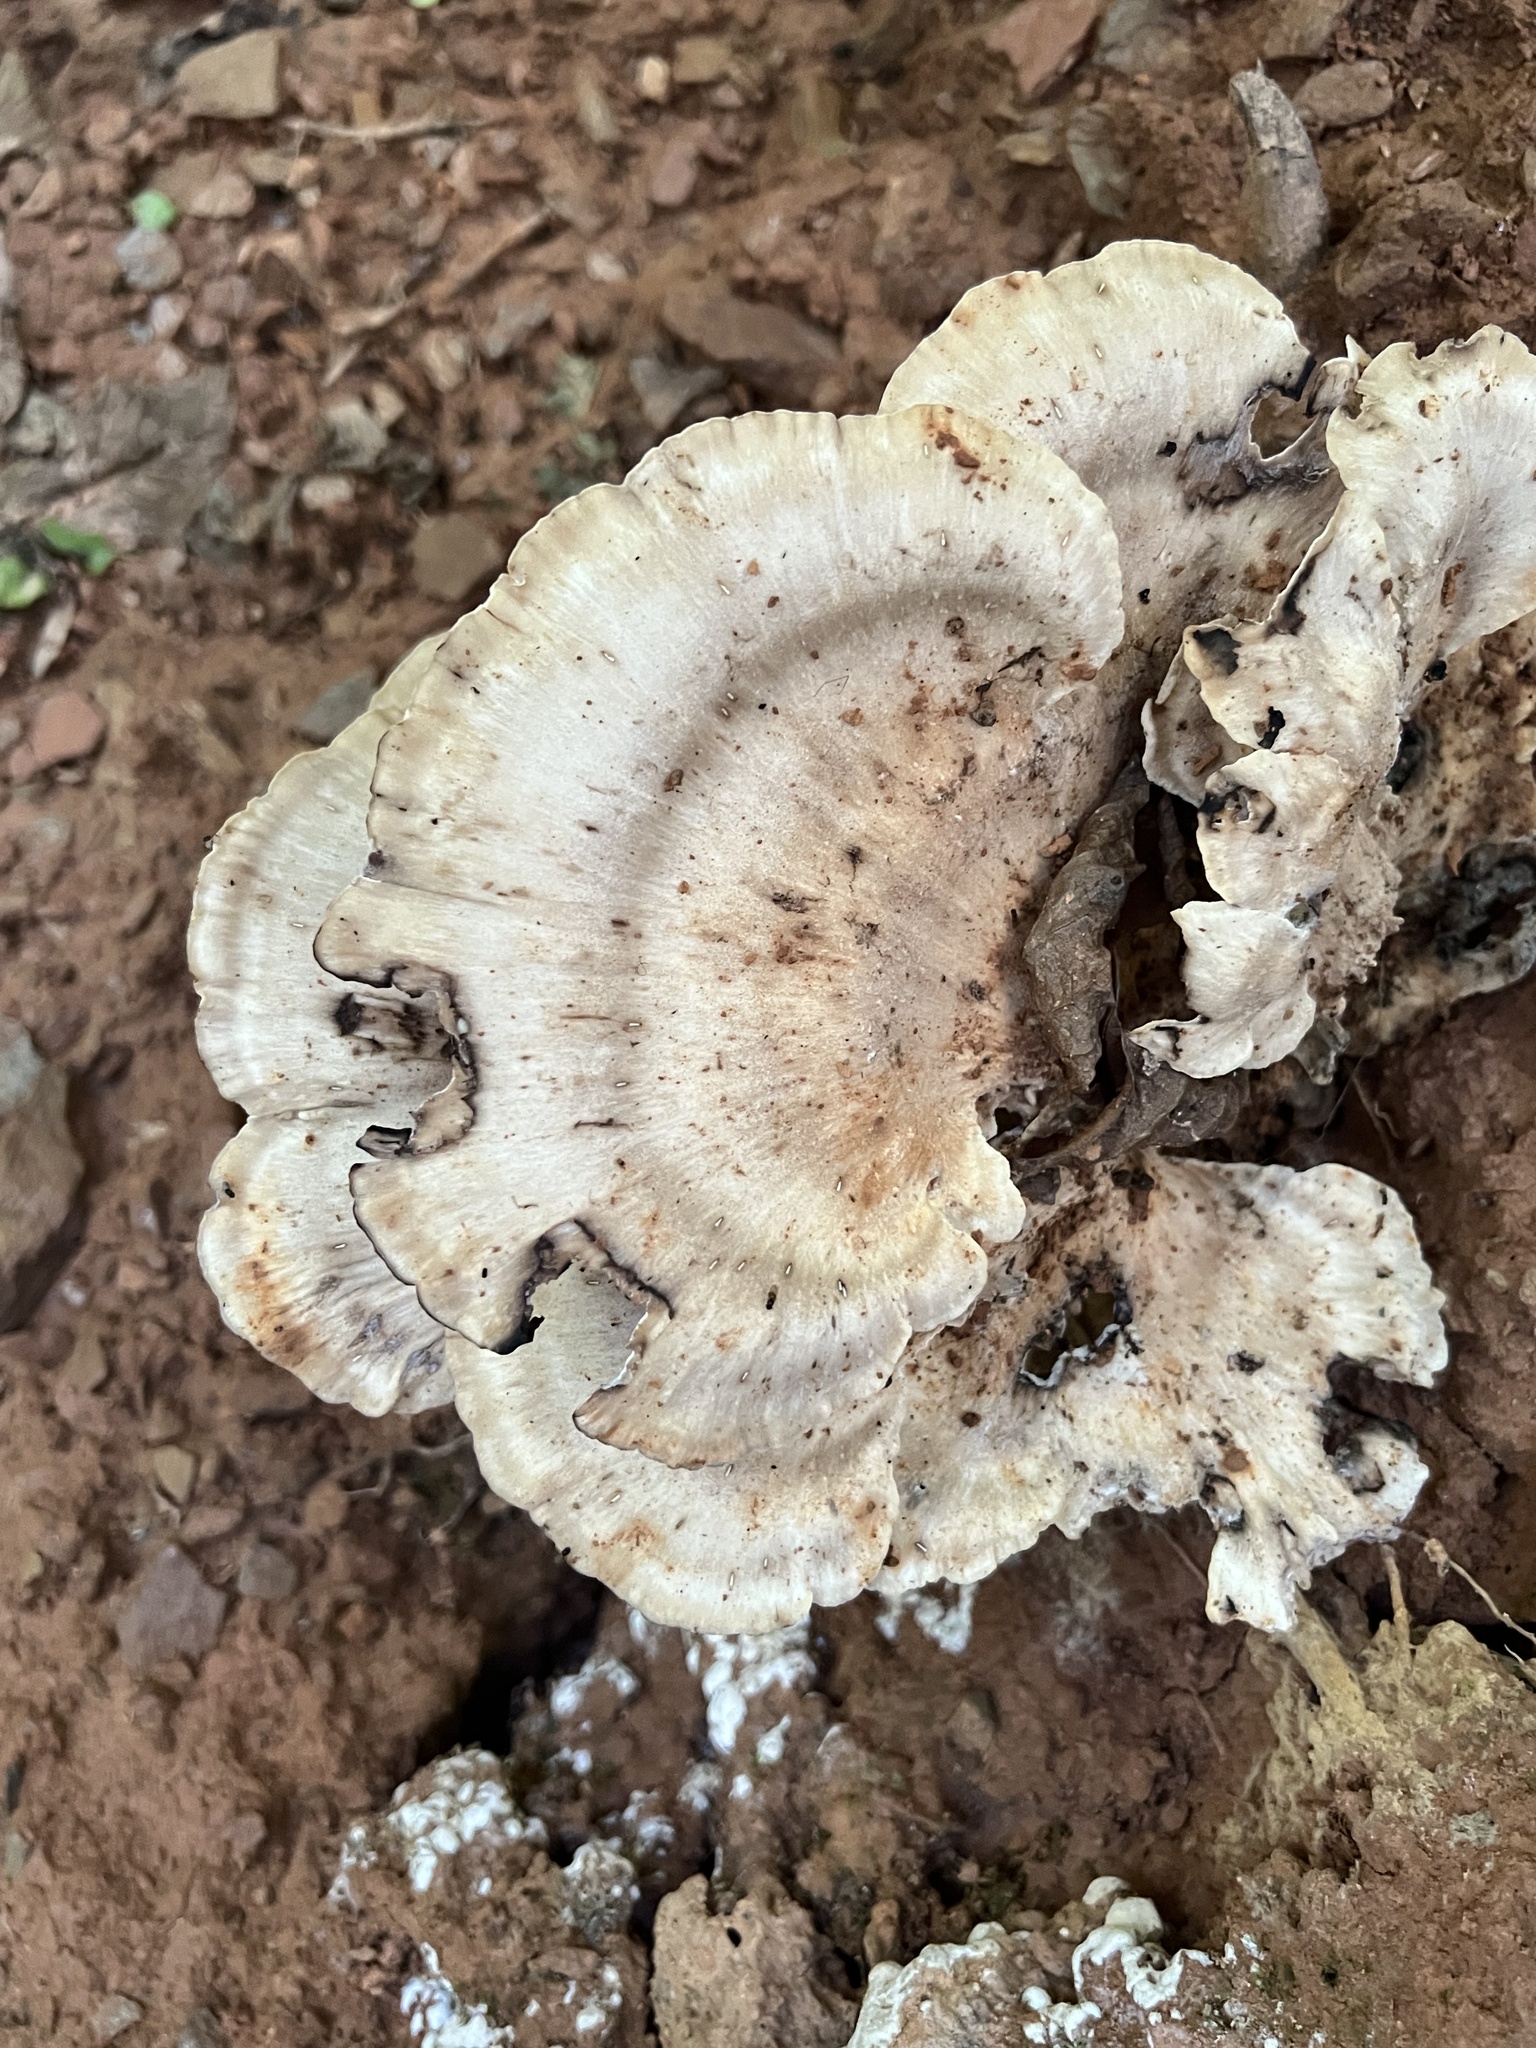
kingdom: Fungi
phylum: Basidiomycota
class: Agaricomycetes
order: Polyporales
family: Meripilaceae
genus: Meripilus
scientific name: Meripilus sumstinei
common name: Black-staining polypore
